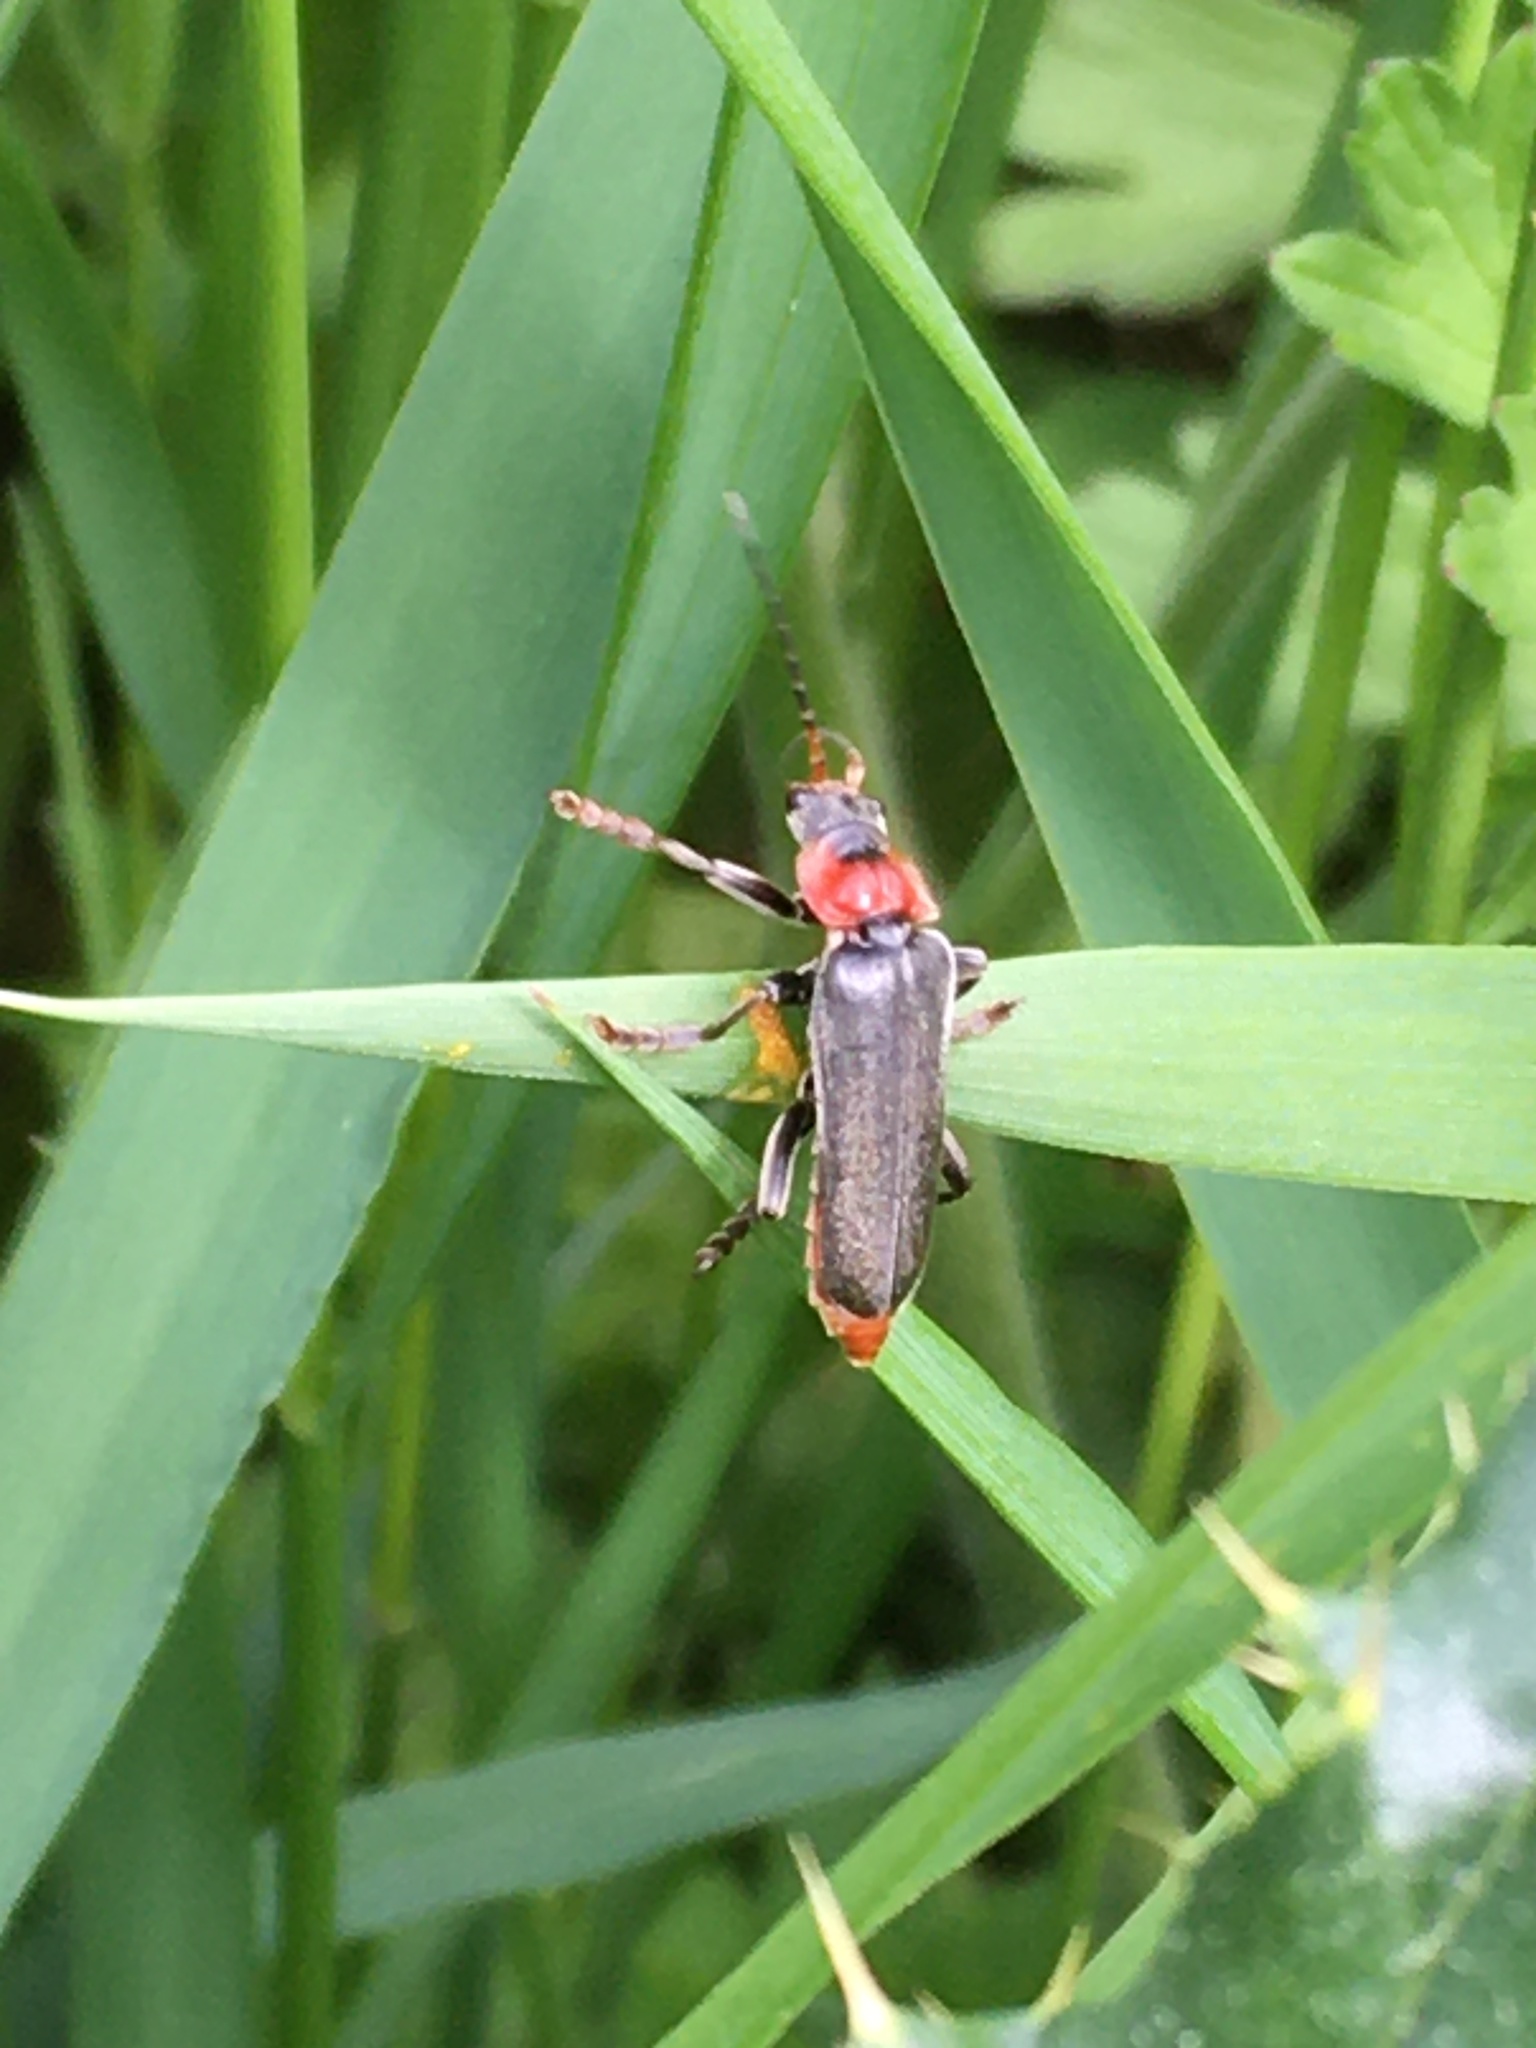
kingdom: Animalia
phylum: Arthropoda
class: Insecta
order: Coleoptera
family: Cantharidae
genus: Cantharis
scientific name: Cantharis fusca
